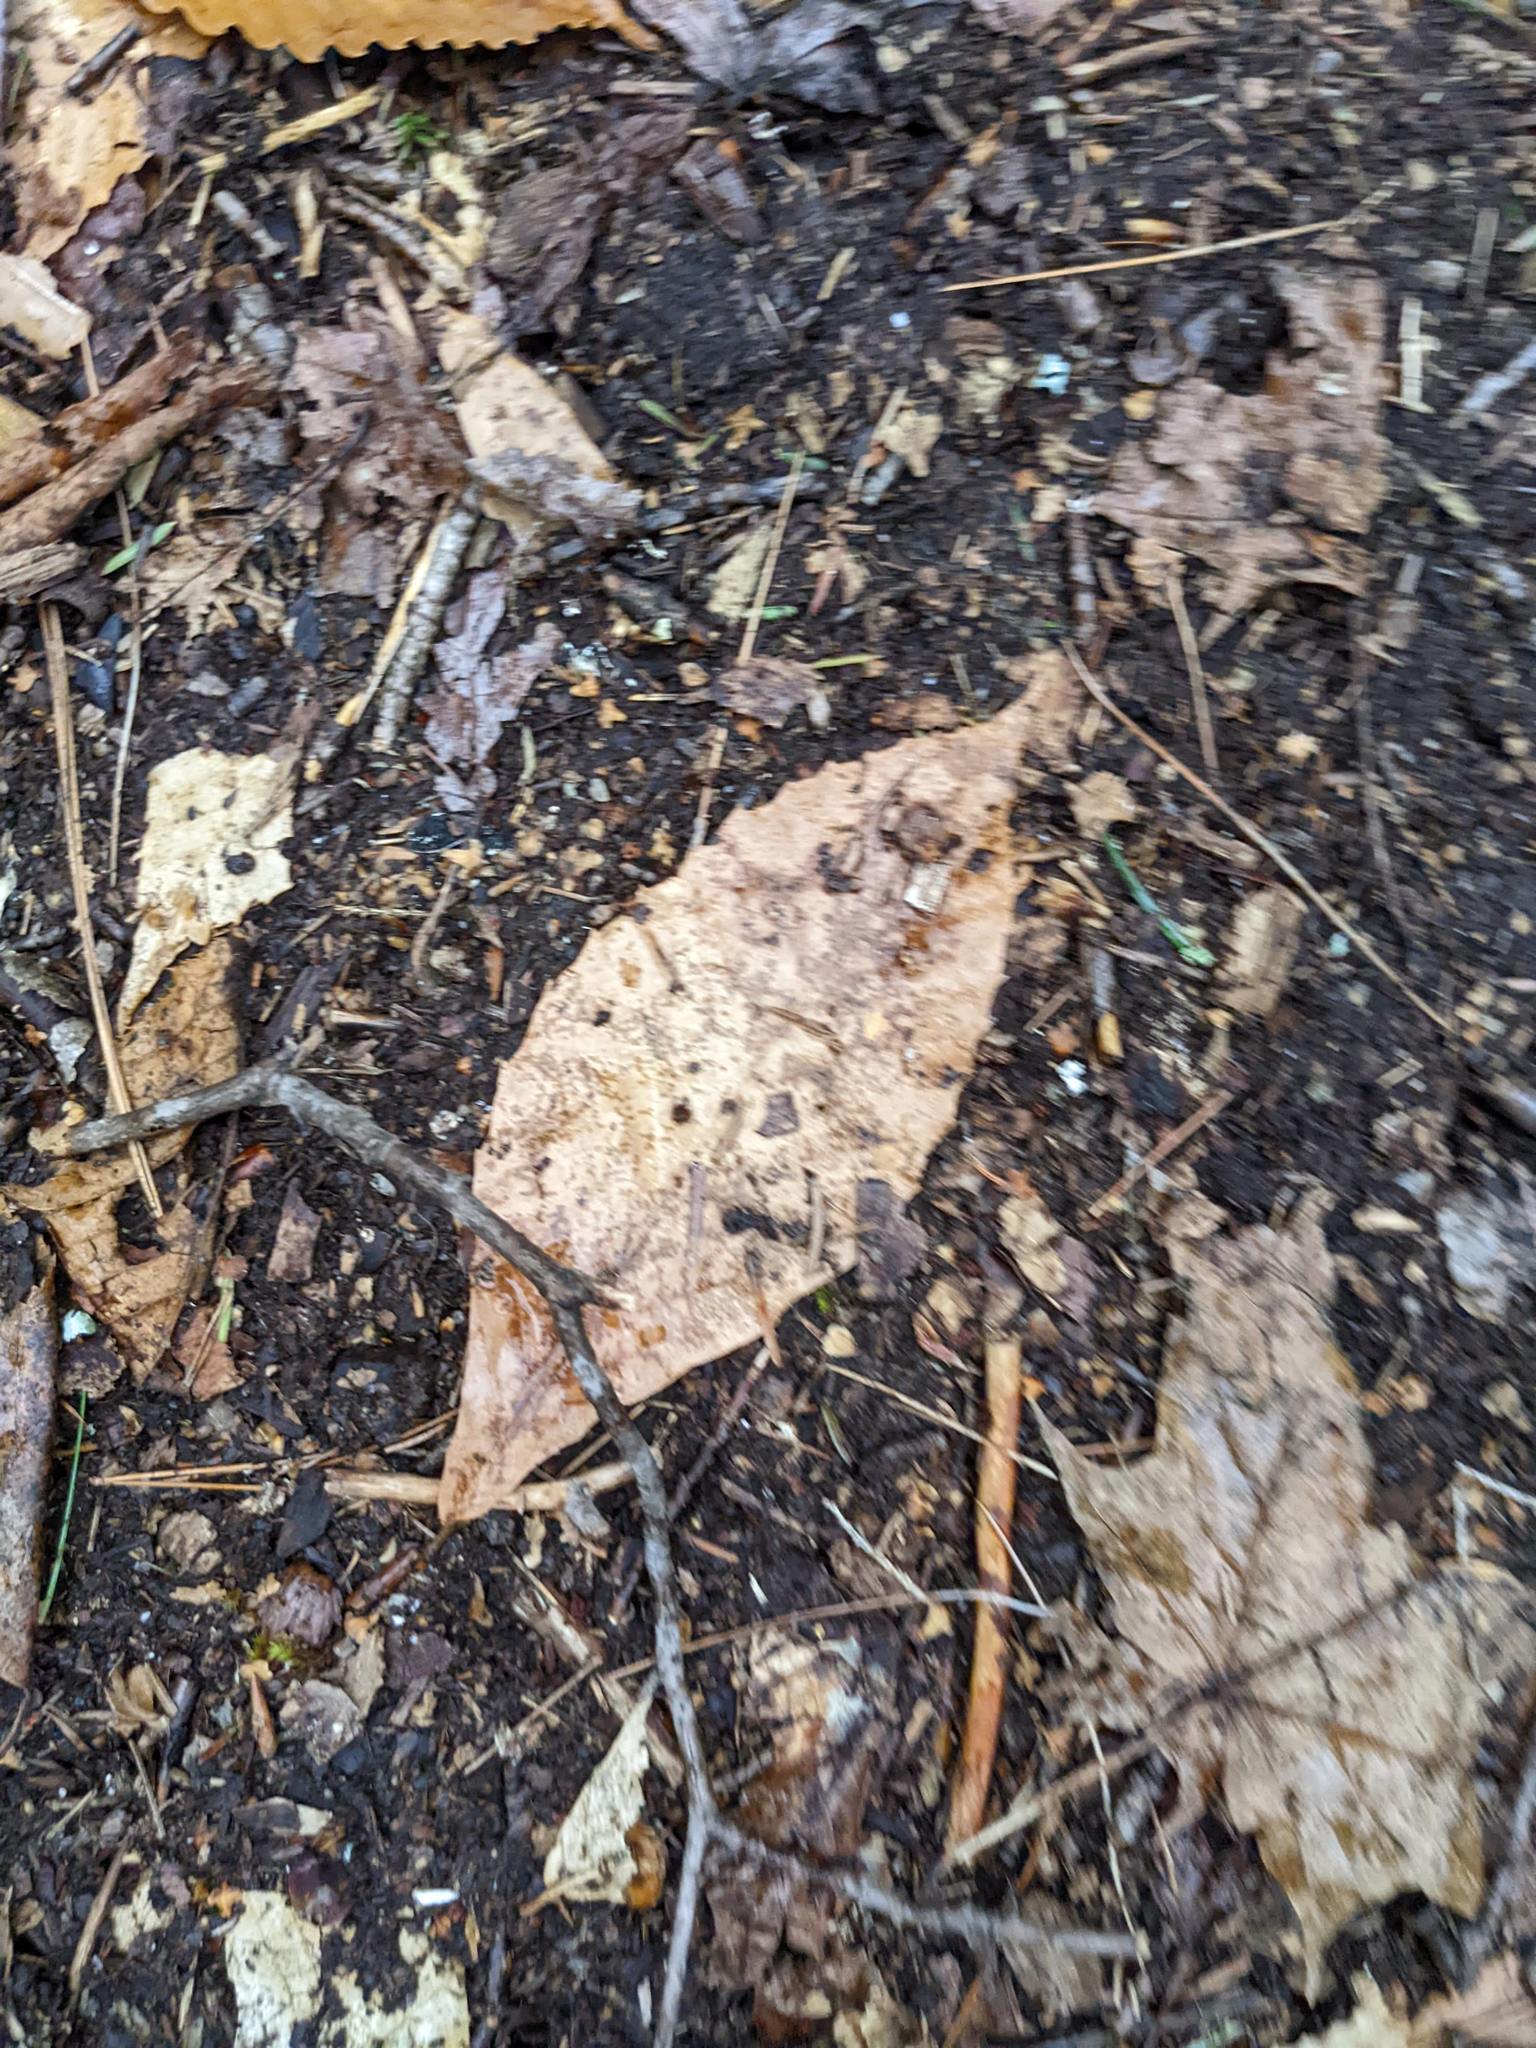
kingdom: Plantae
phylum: Tracheophyta
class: Magnoliopsida
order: Fagales
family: Fagaceae
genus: Fagus
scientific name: Fagus grandifolia
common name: American beech
